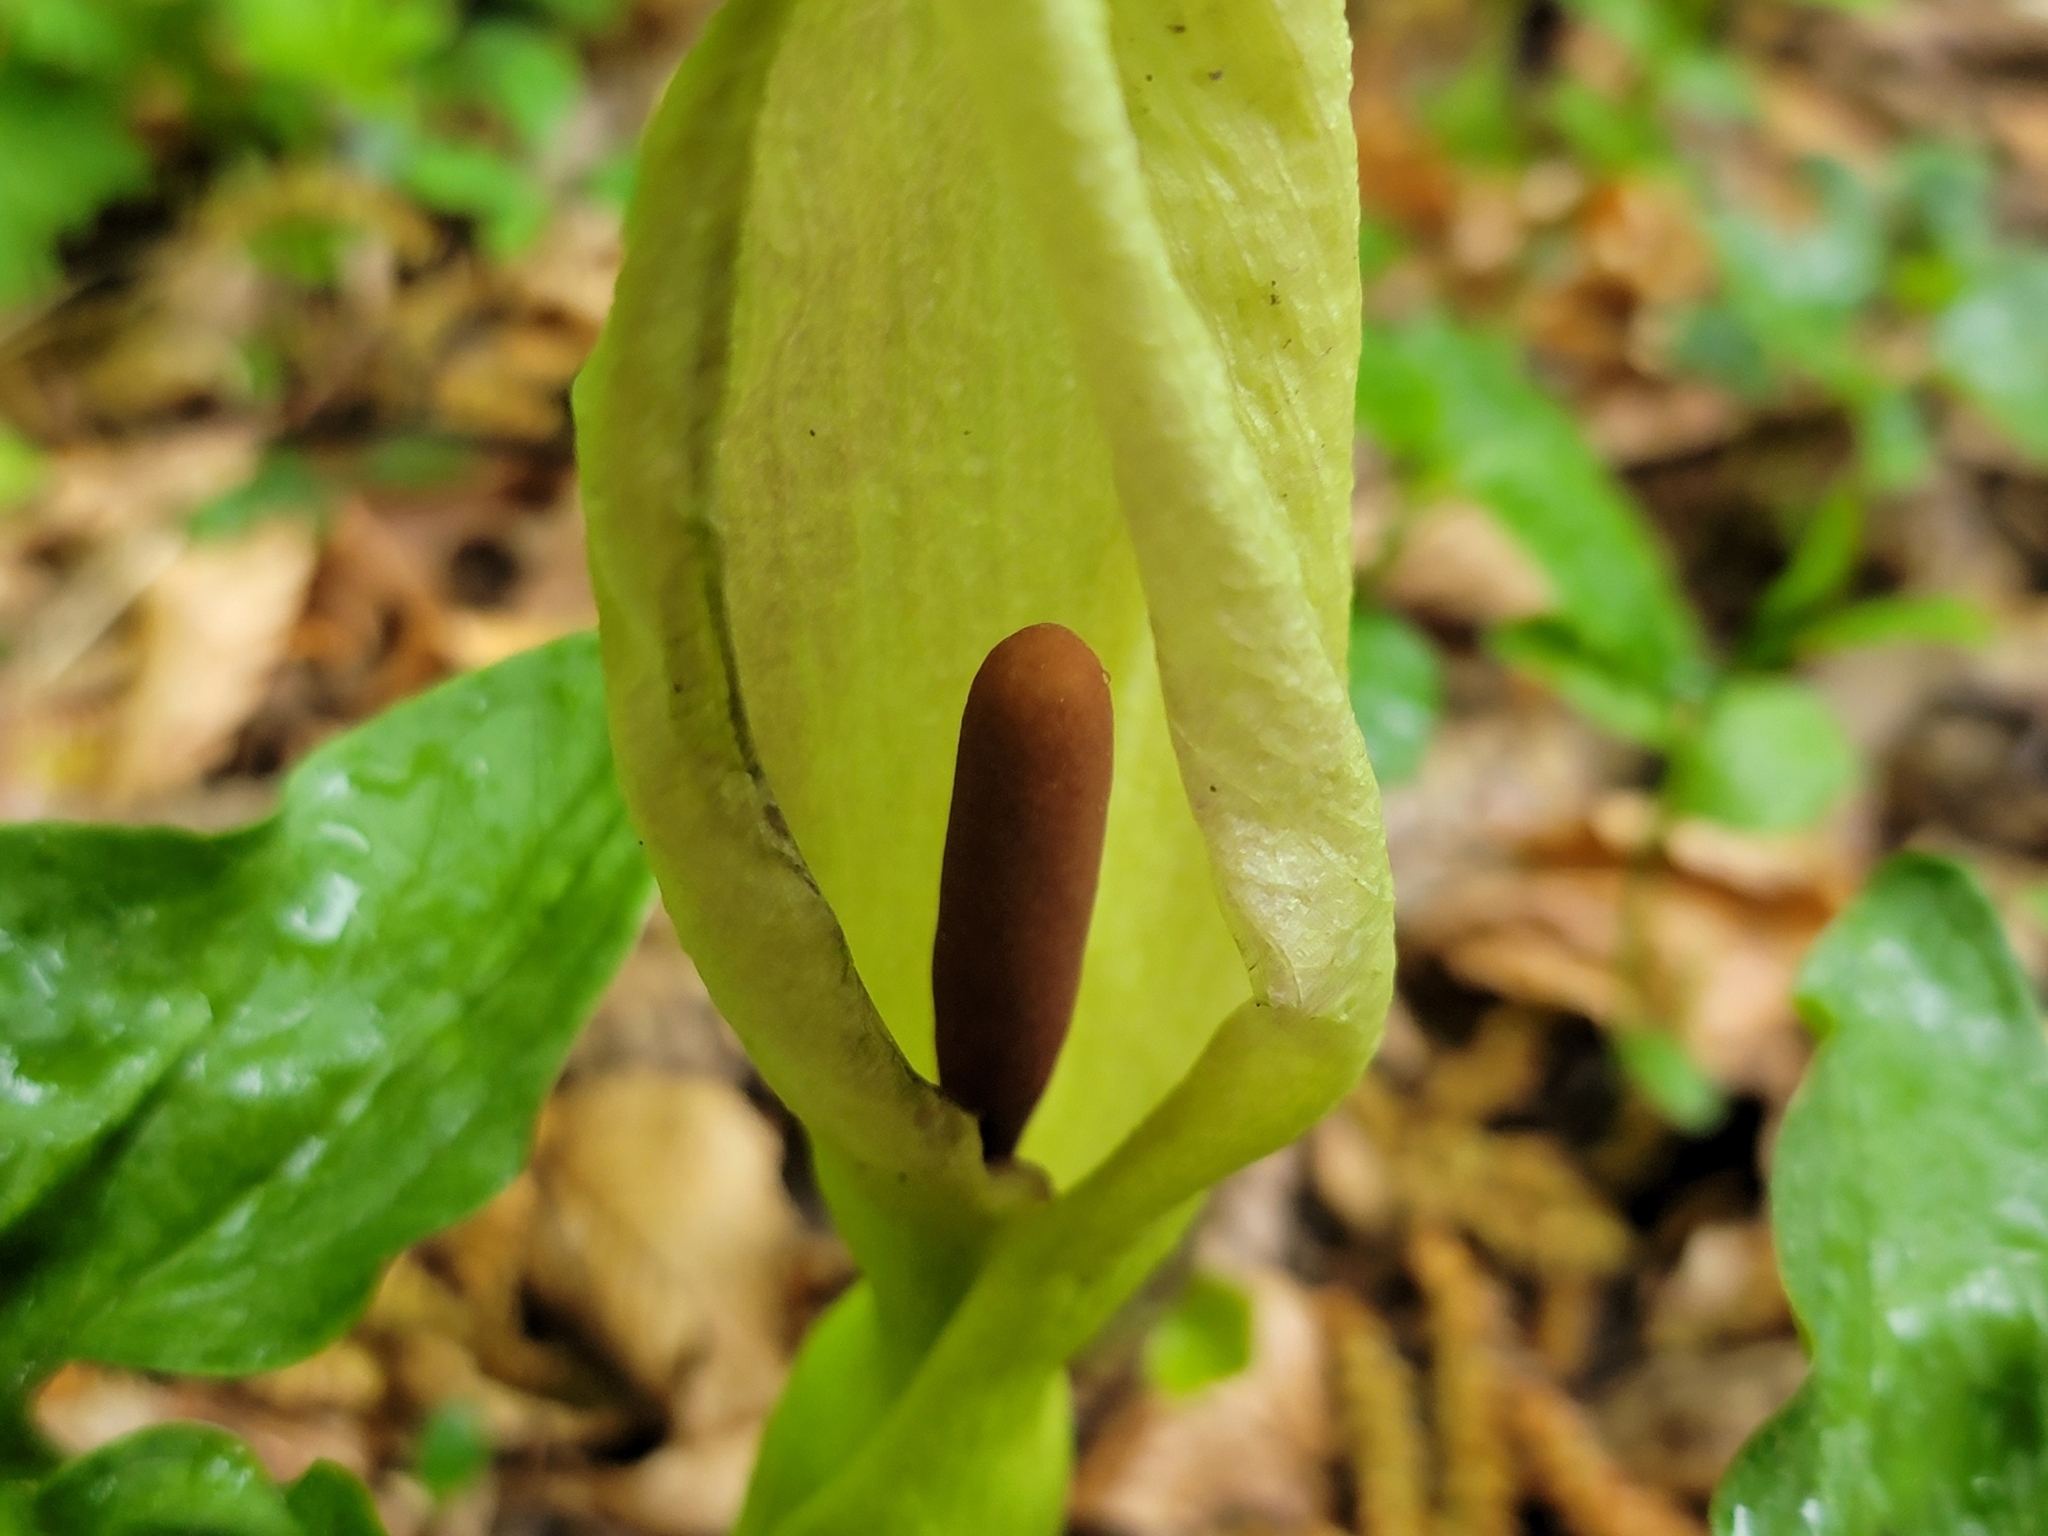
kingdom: Plantae
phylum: Tracheophyta
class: Liliopsida
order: Alismatales
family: Araceae
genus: Arum
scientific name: Arum maculatum
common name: Lords-and-ladies
